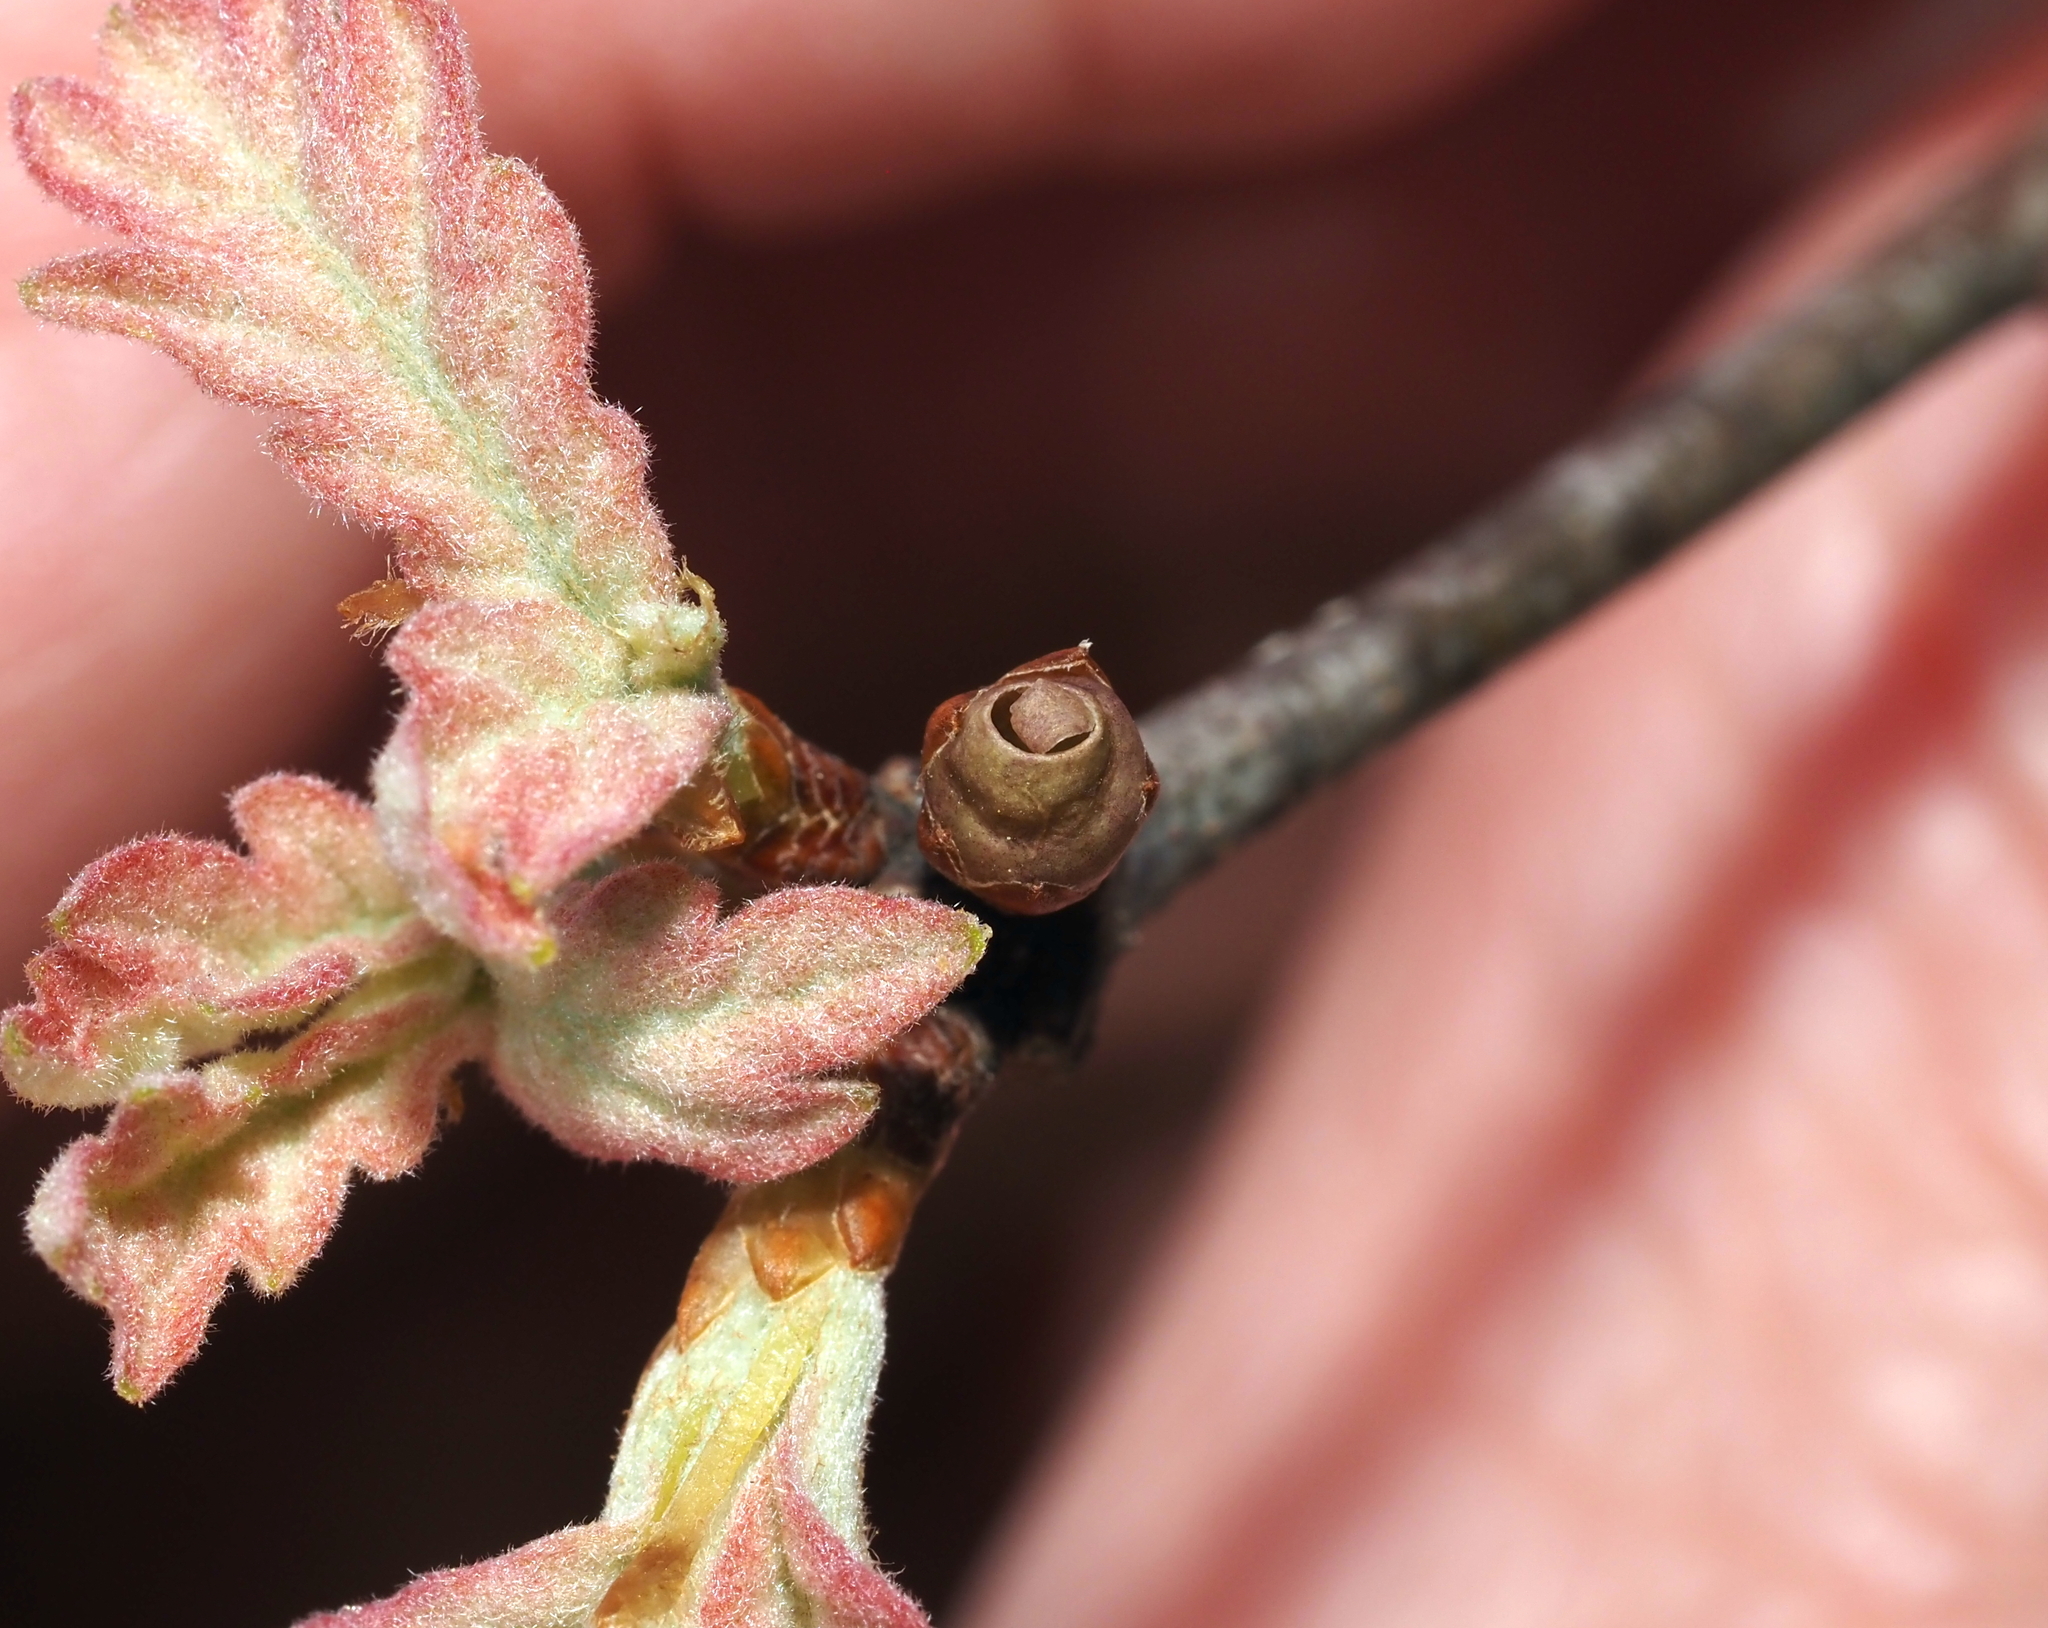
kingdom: Animalia
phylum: Arthropoda
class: Insecta
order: Hymenoptera
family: Cynipidae
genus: Neuroterus
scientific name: Neuroterus
